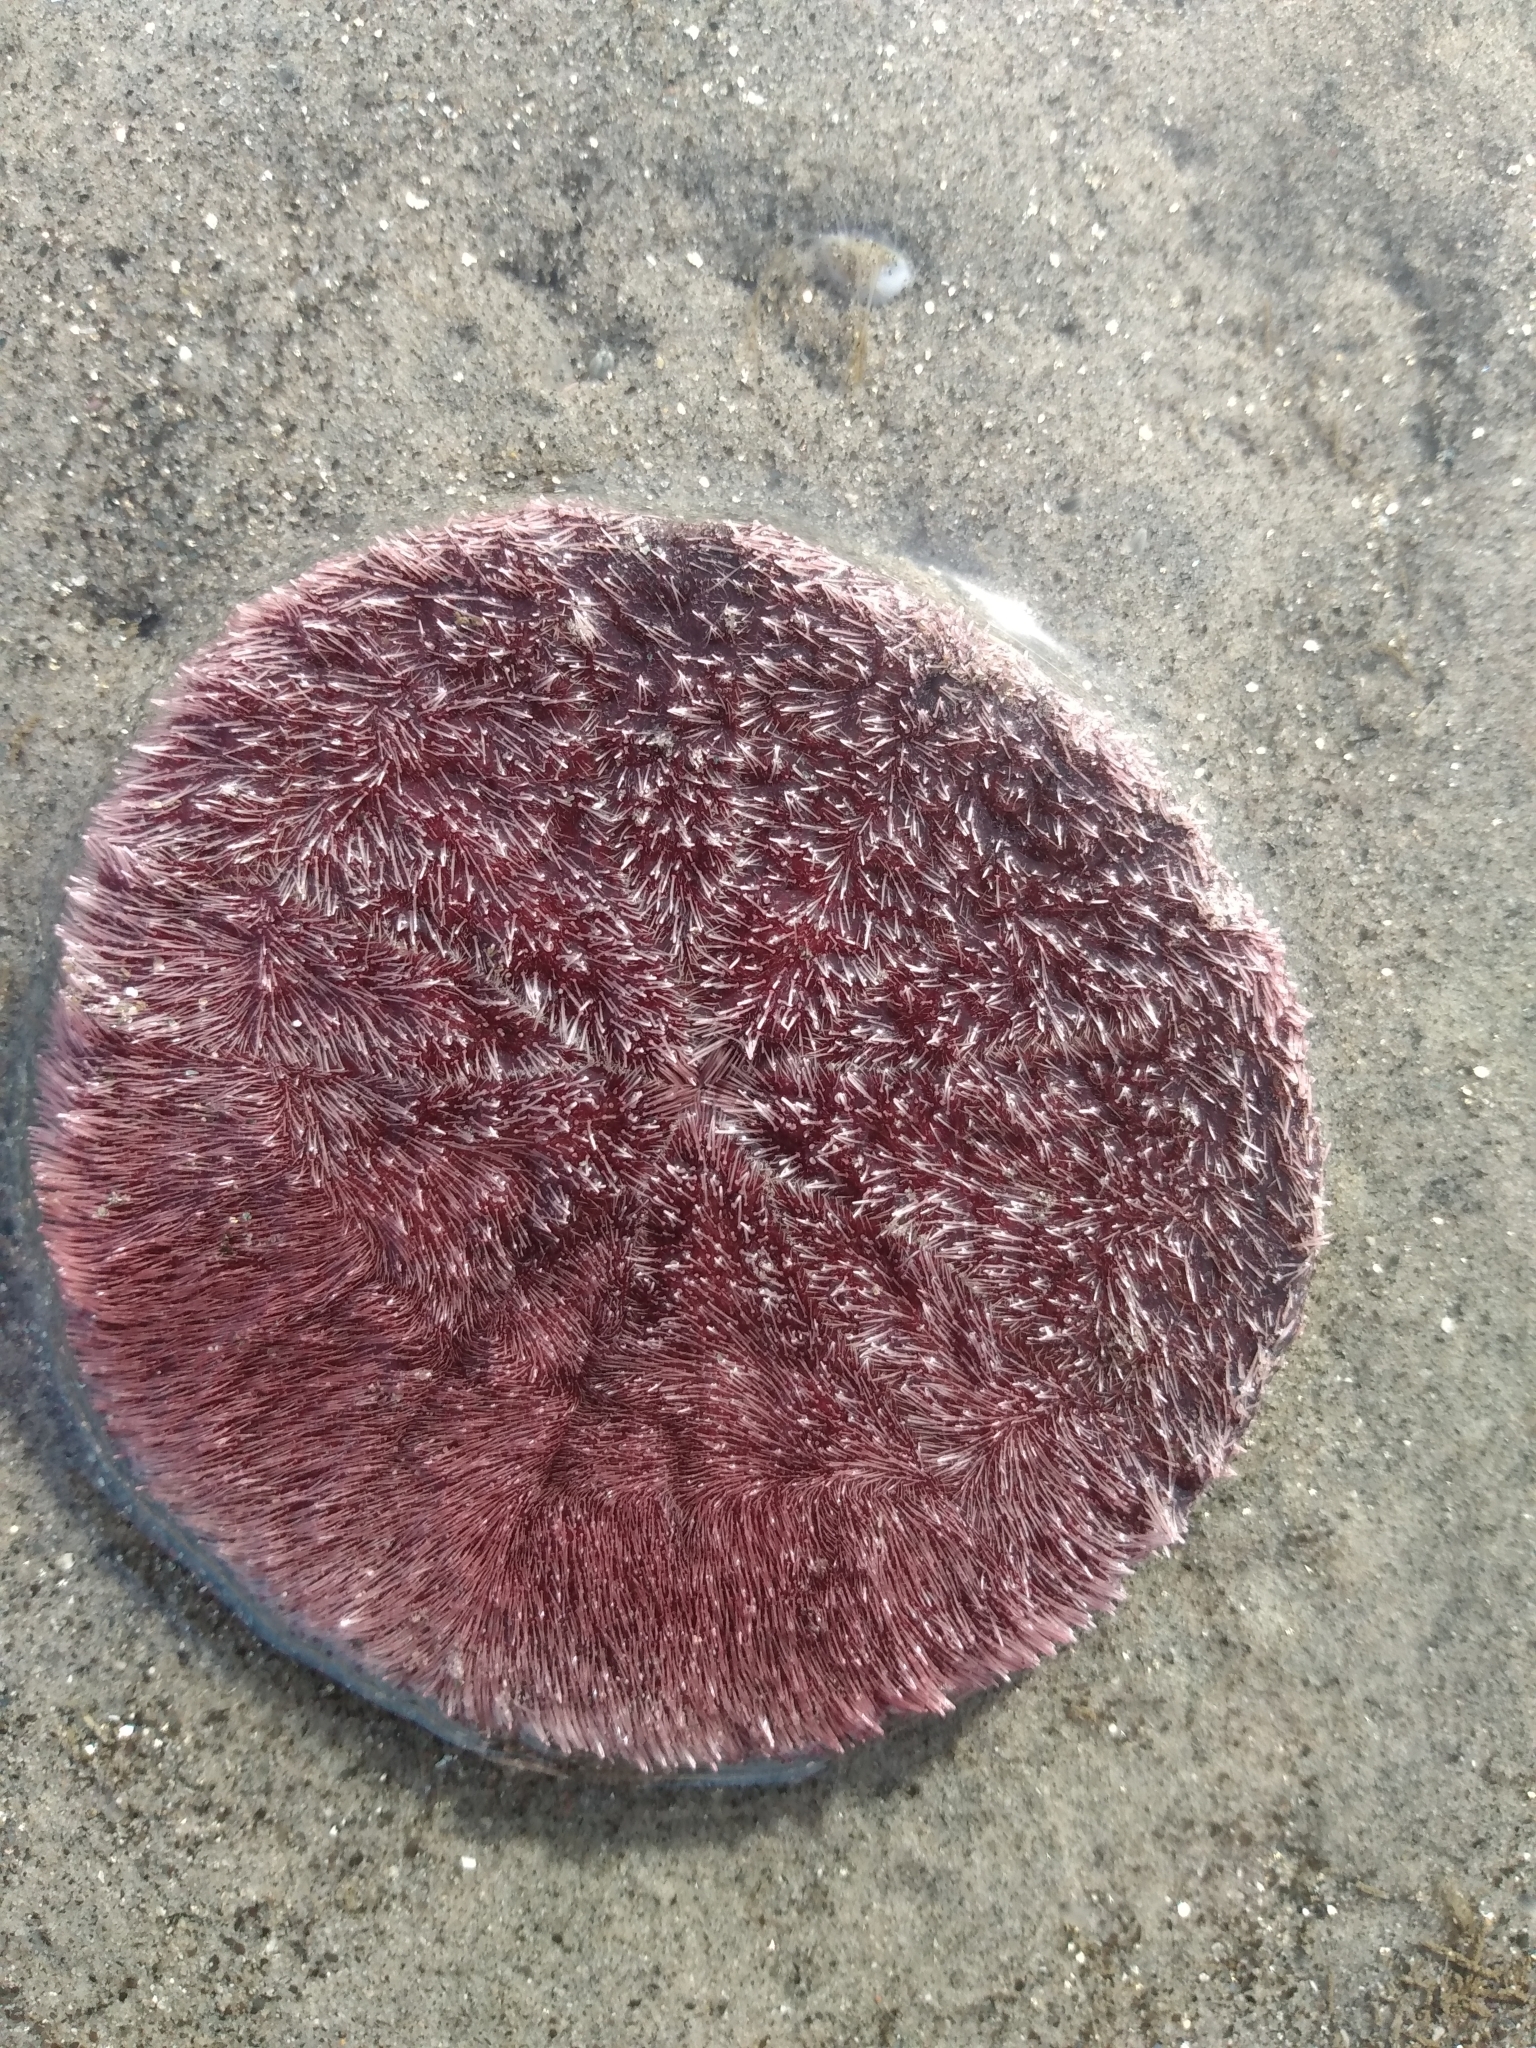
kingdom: Animalia
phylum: Echinodermata
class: Echinoidea
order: Echinolampadacea
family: Dendrasteridae
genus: Dendraster
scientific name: Dendraster excentricus
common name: Eccentric sand dollar sea urchin
